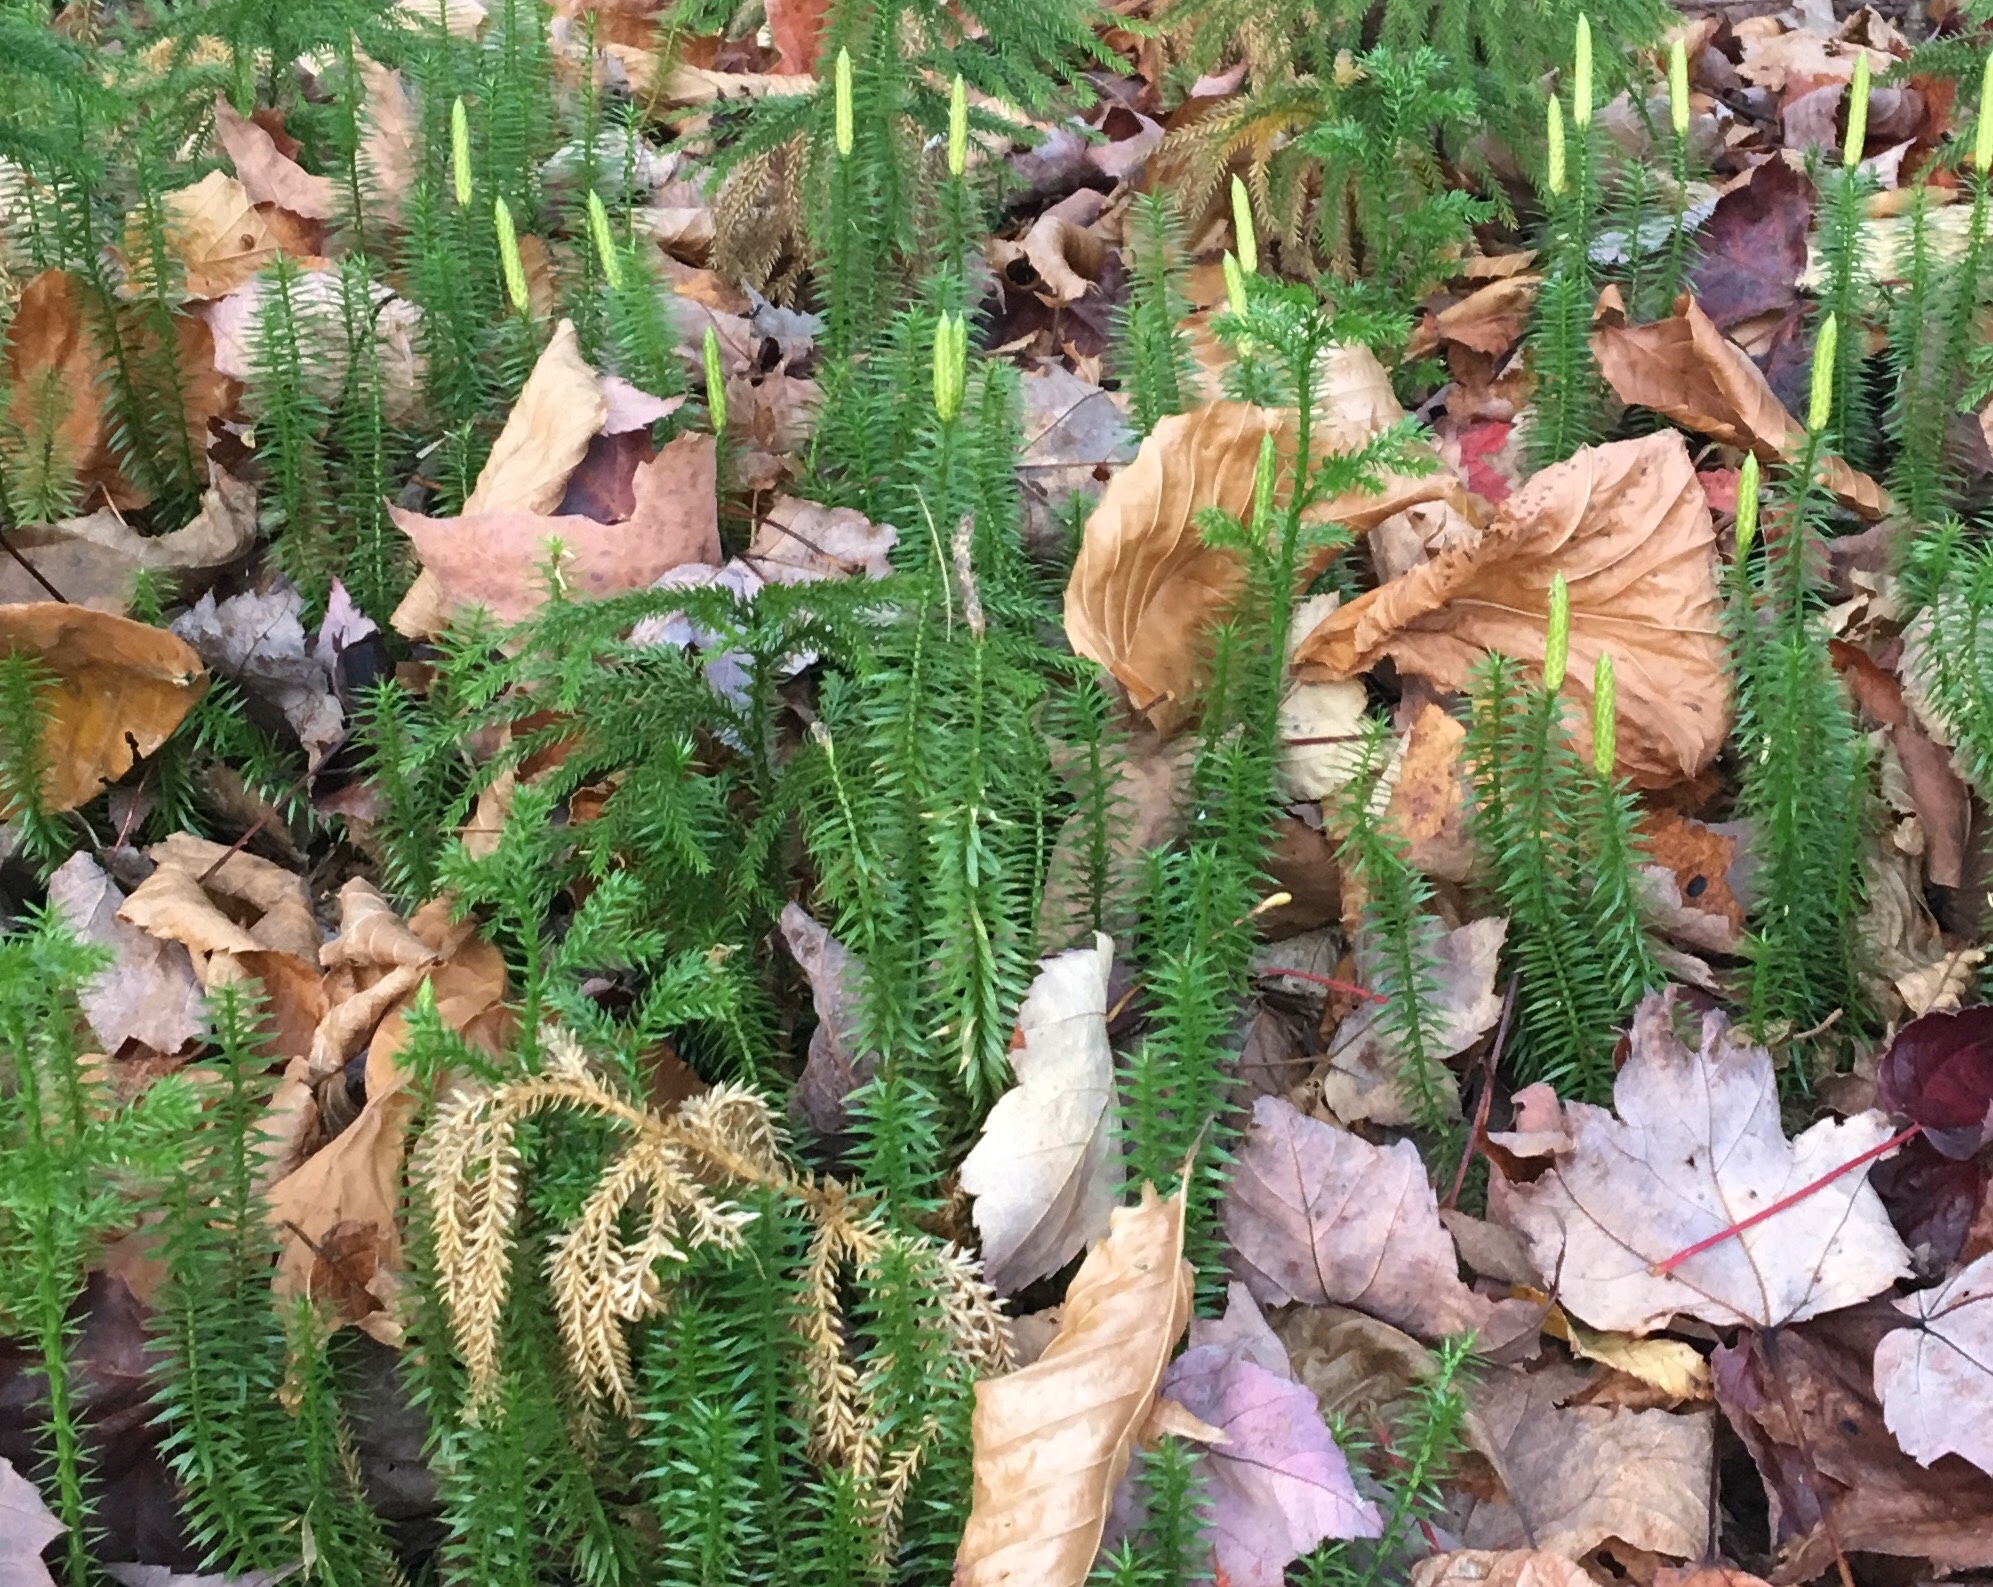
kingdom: Plantae
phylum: Tracheophyta
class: Lycopodiopsida
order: Lycopodiales
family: Lycopodiaceae
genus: Spinulum
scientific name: Spinulum annotinum
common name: Interrupted club-moss
